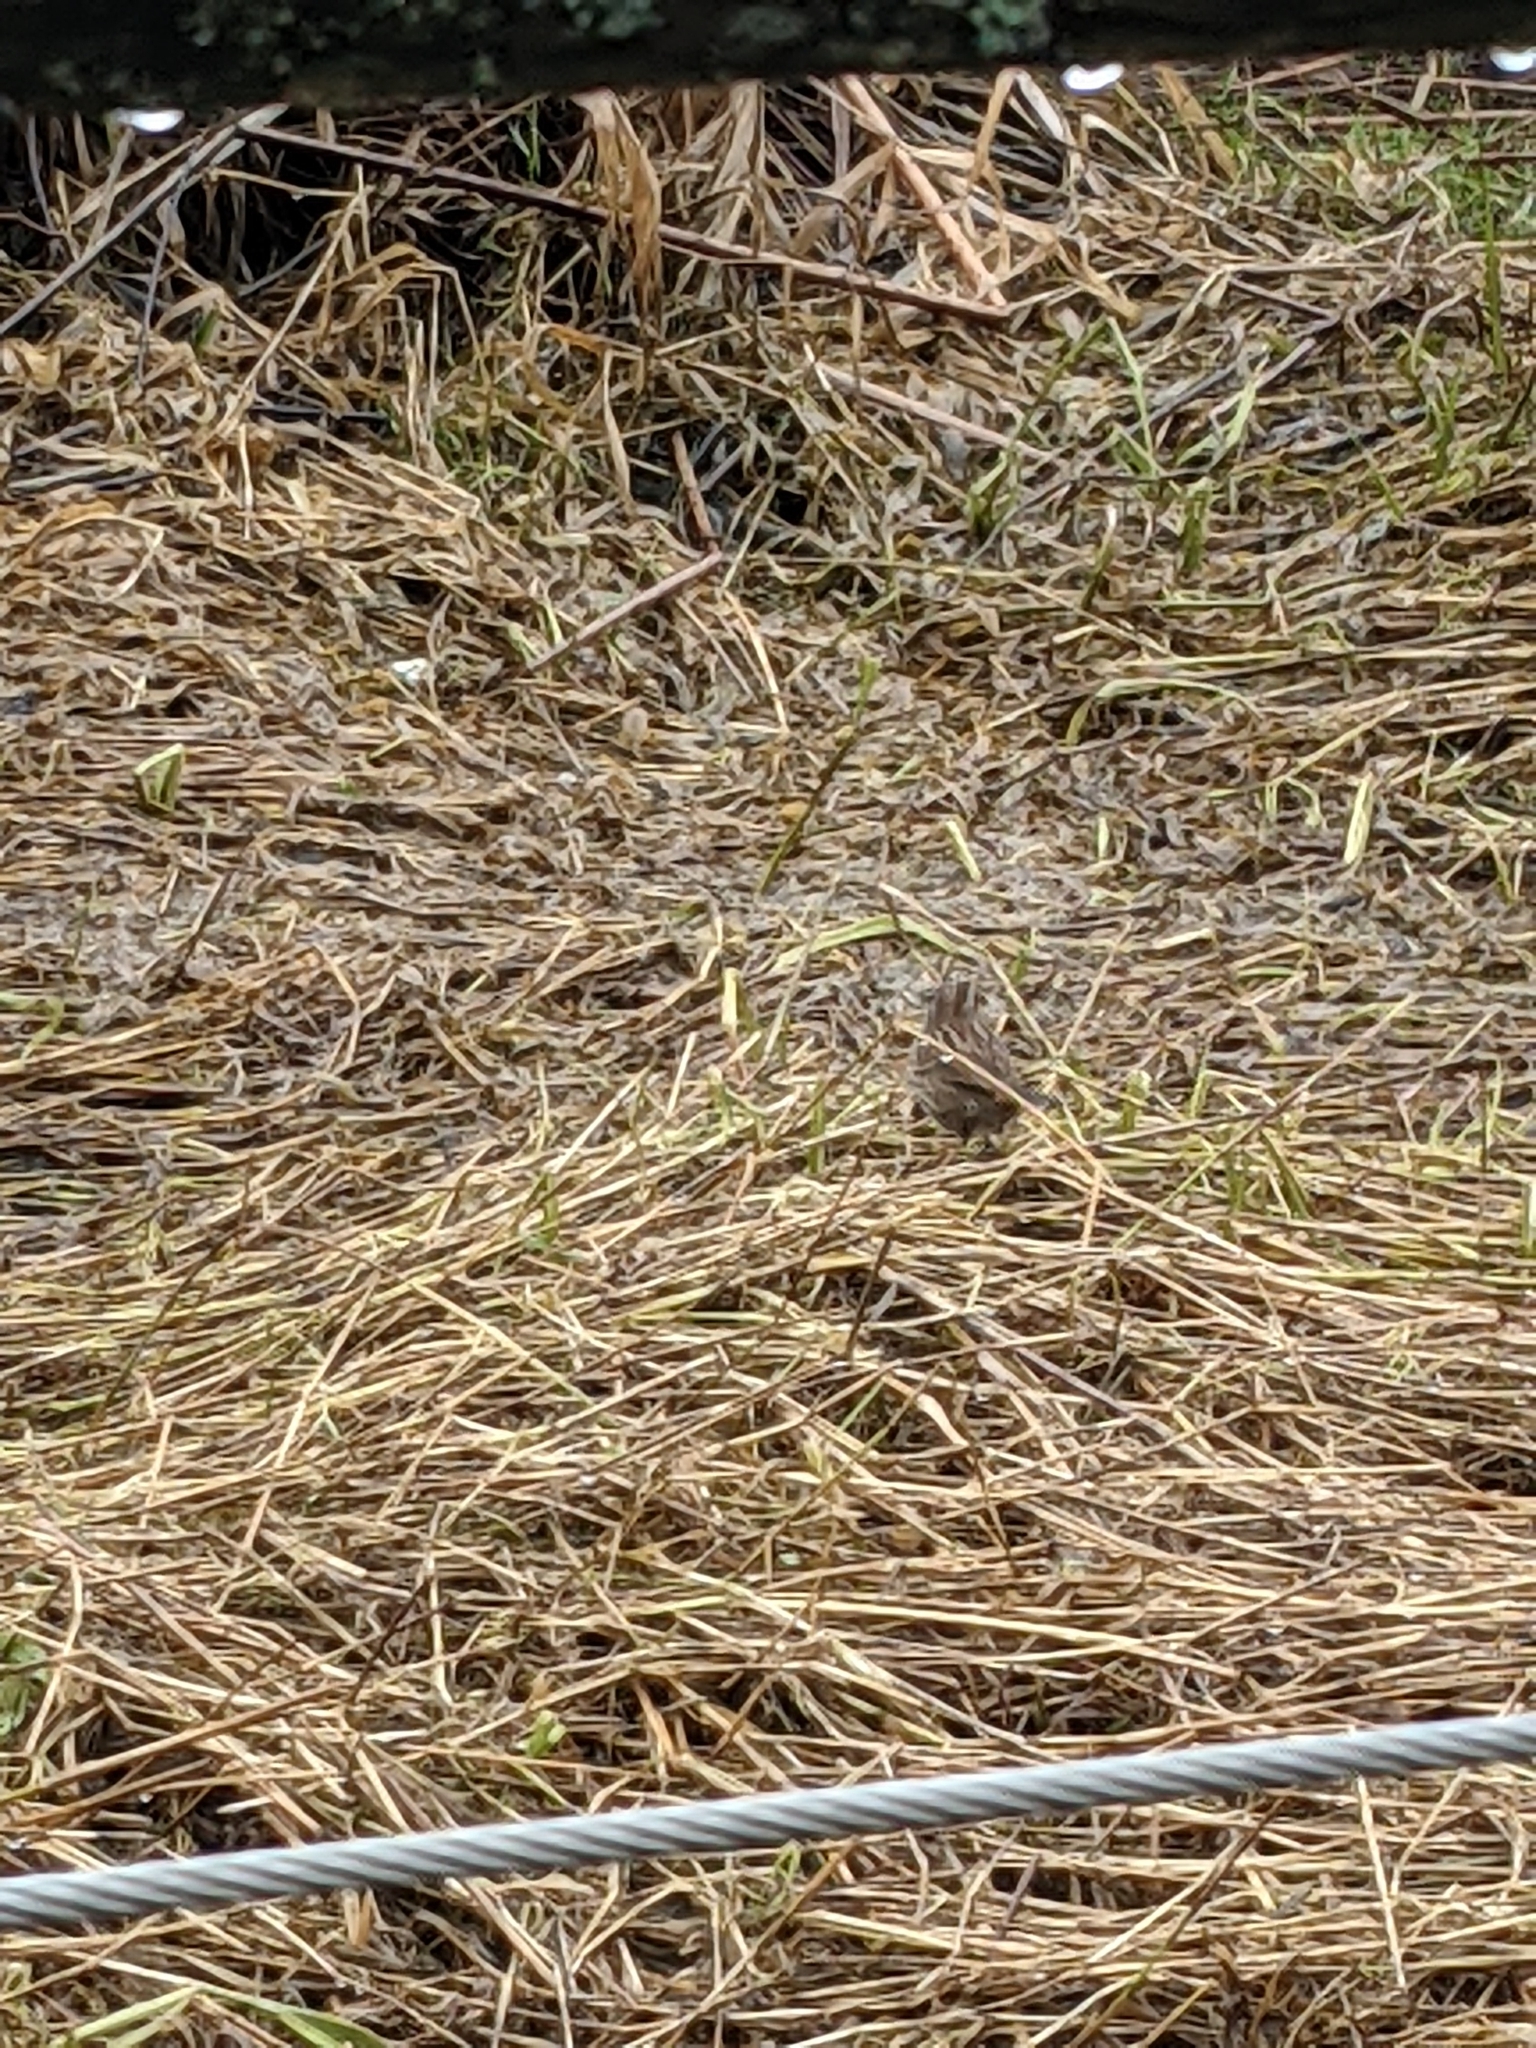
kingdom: Animalia
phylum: Chordata
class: Aves
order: Passeriformes
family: Passerellidae
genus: Melospiza
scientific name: Melospiza melodia
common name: Song sparrow
